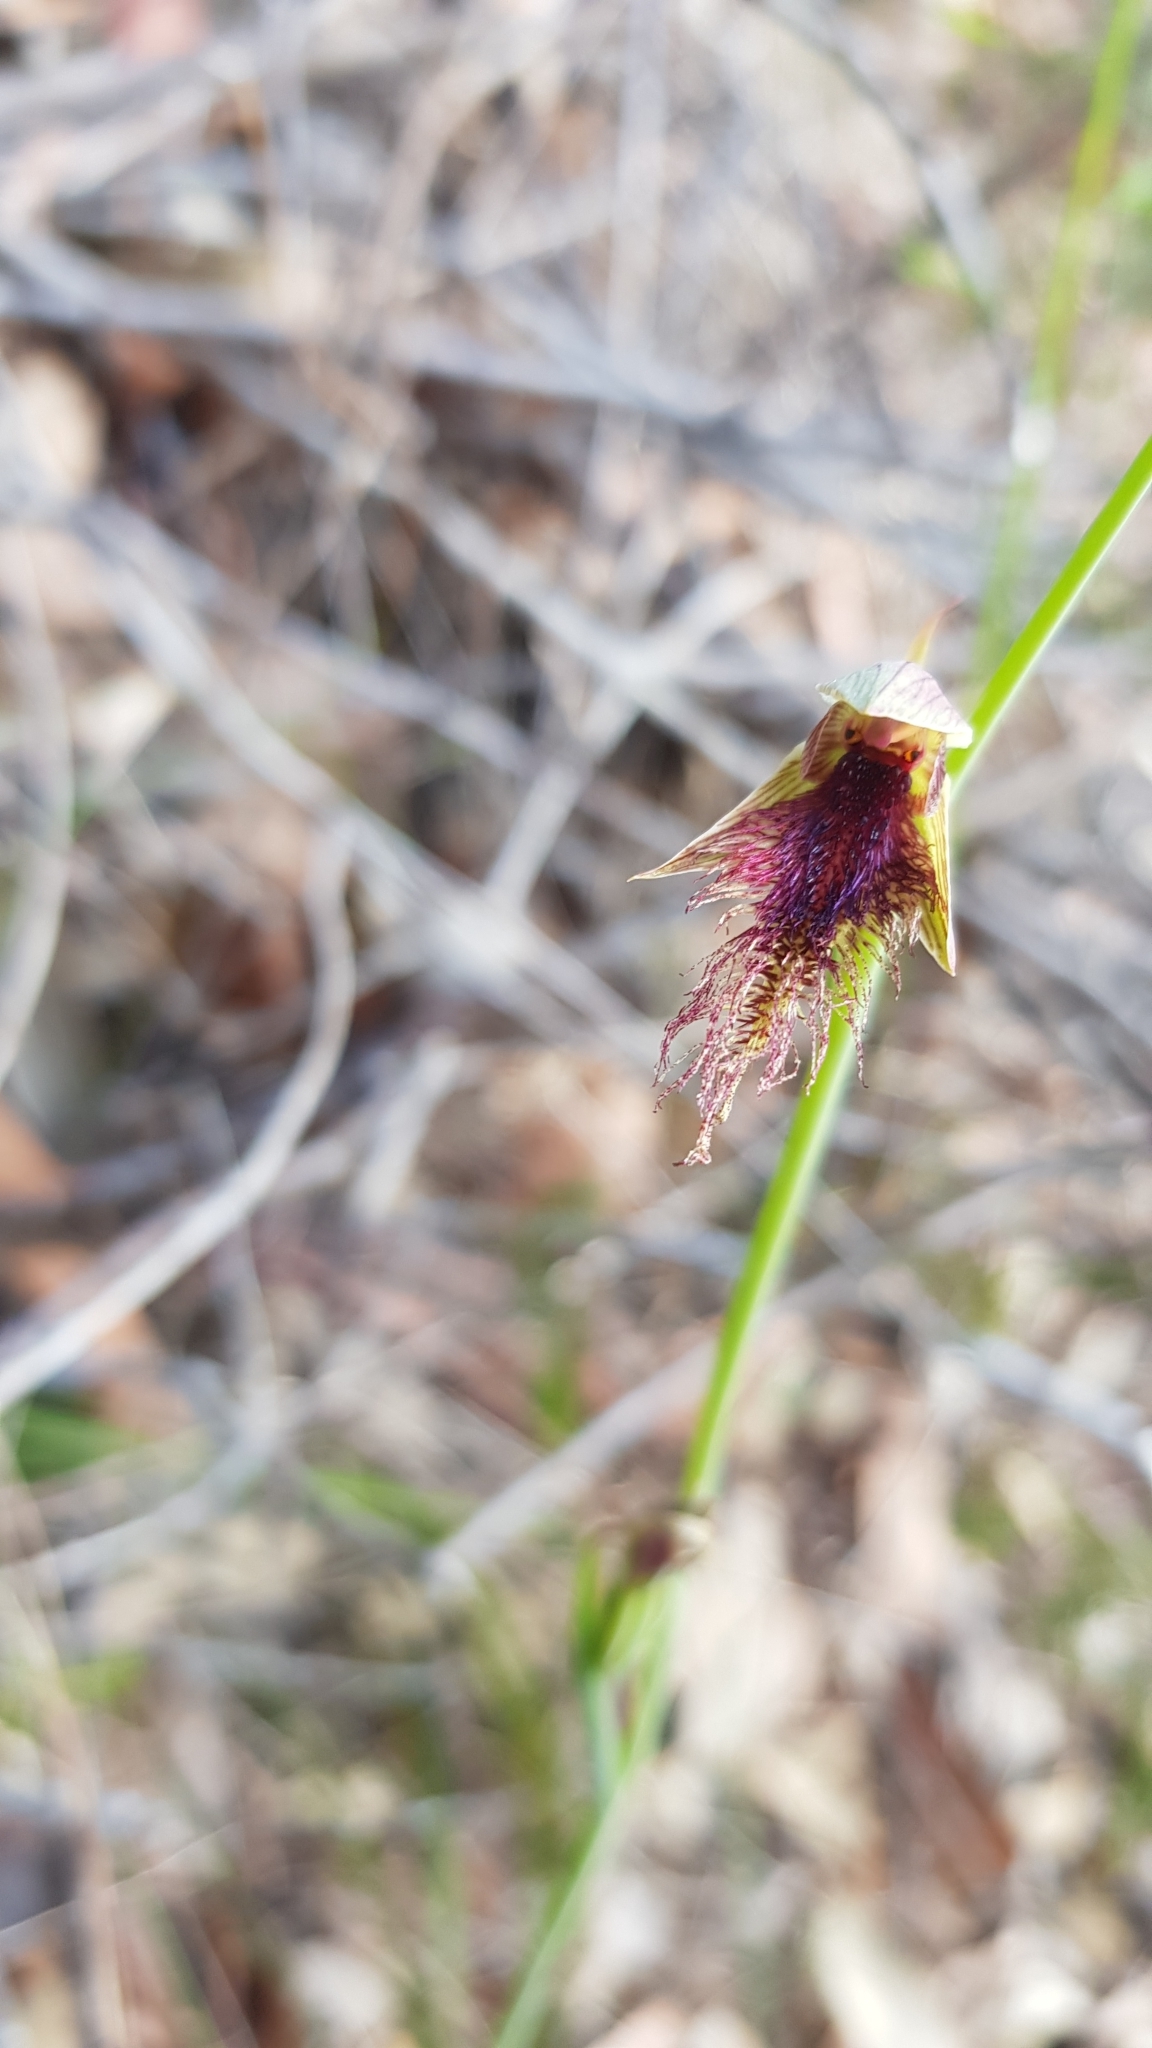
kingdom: Plantae
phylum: Tracheophyta
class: Liliopsida
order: Asparagales
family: Orchidaceae
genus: Calochilus
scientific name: Calochilus robertsonii
